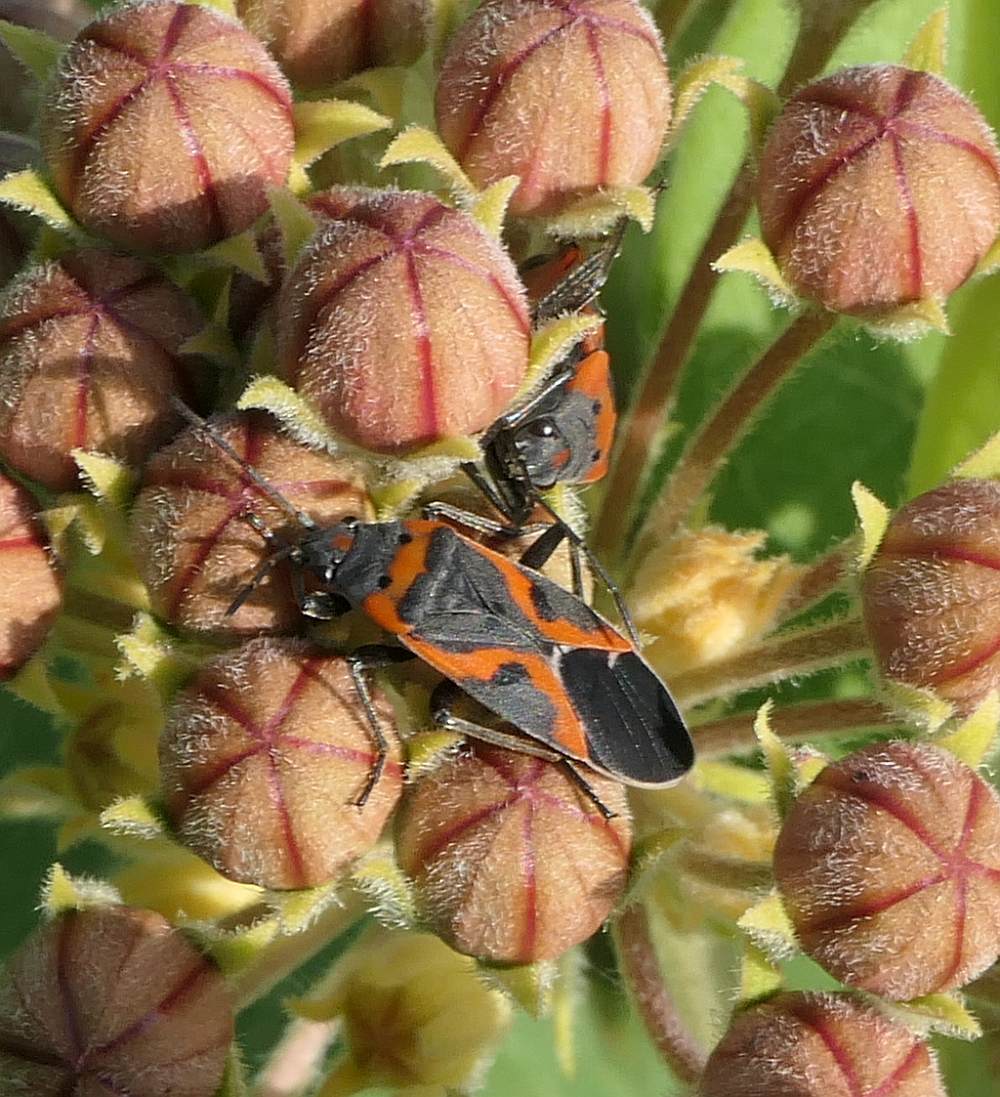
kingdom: Animalia
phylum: Arthropoda
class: Insecta
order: Hemiptera
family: Lygaeidae
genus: Lygaeus
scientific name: Lygaeus kalmii
